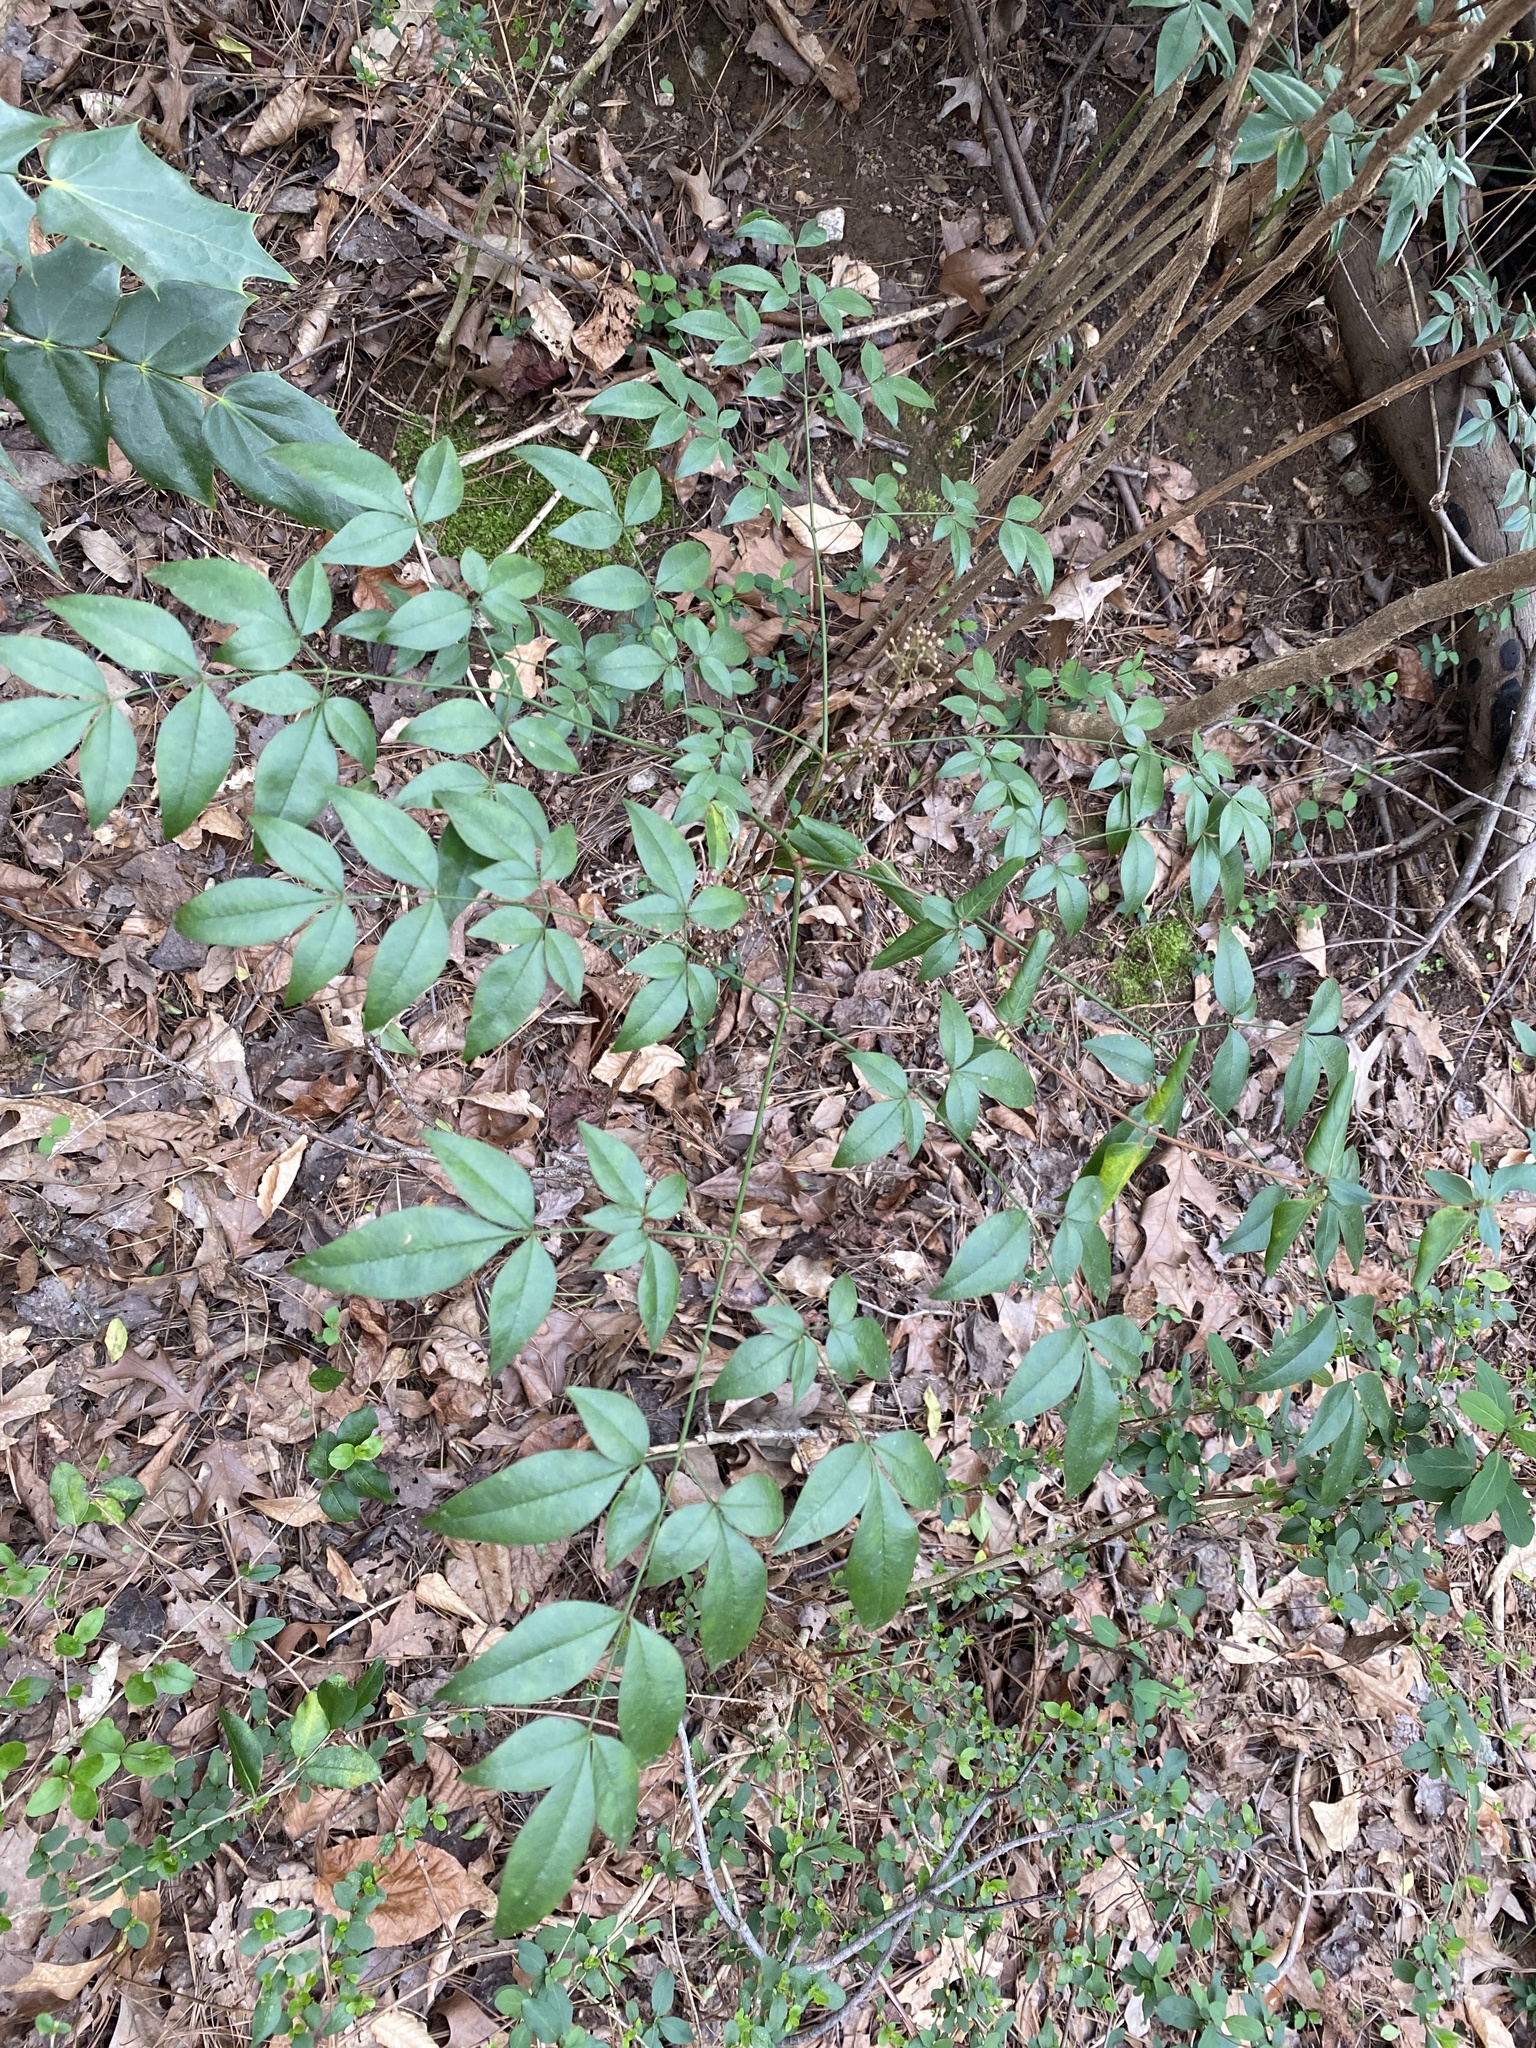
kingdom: Plantae
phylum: Tracheophyta
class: Magnoliopsida
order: Ranunculales
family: Berberidaceae
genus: Nandina
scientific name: Nandina domestica
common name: Sacred bamboo
